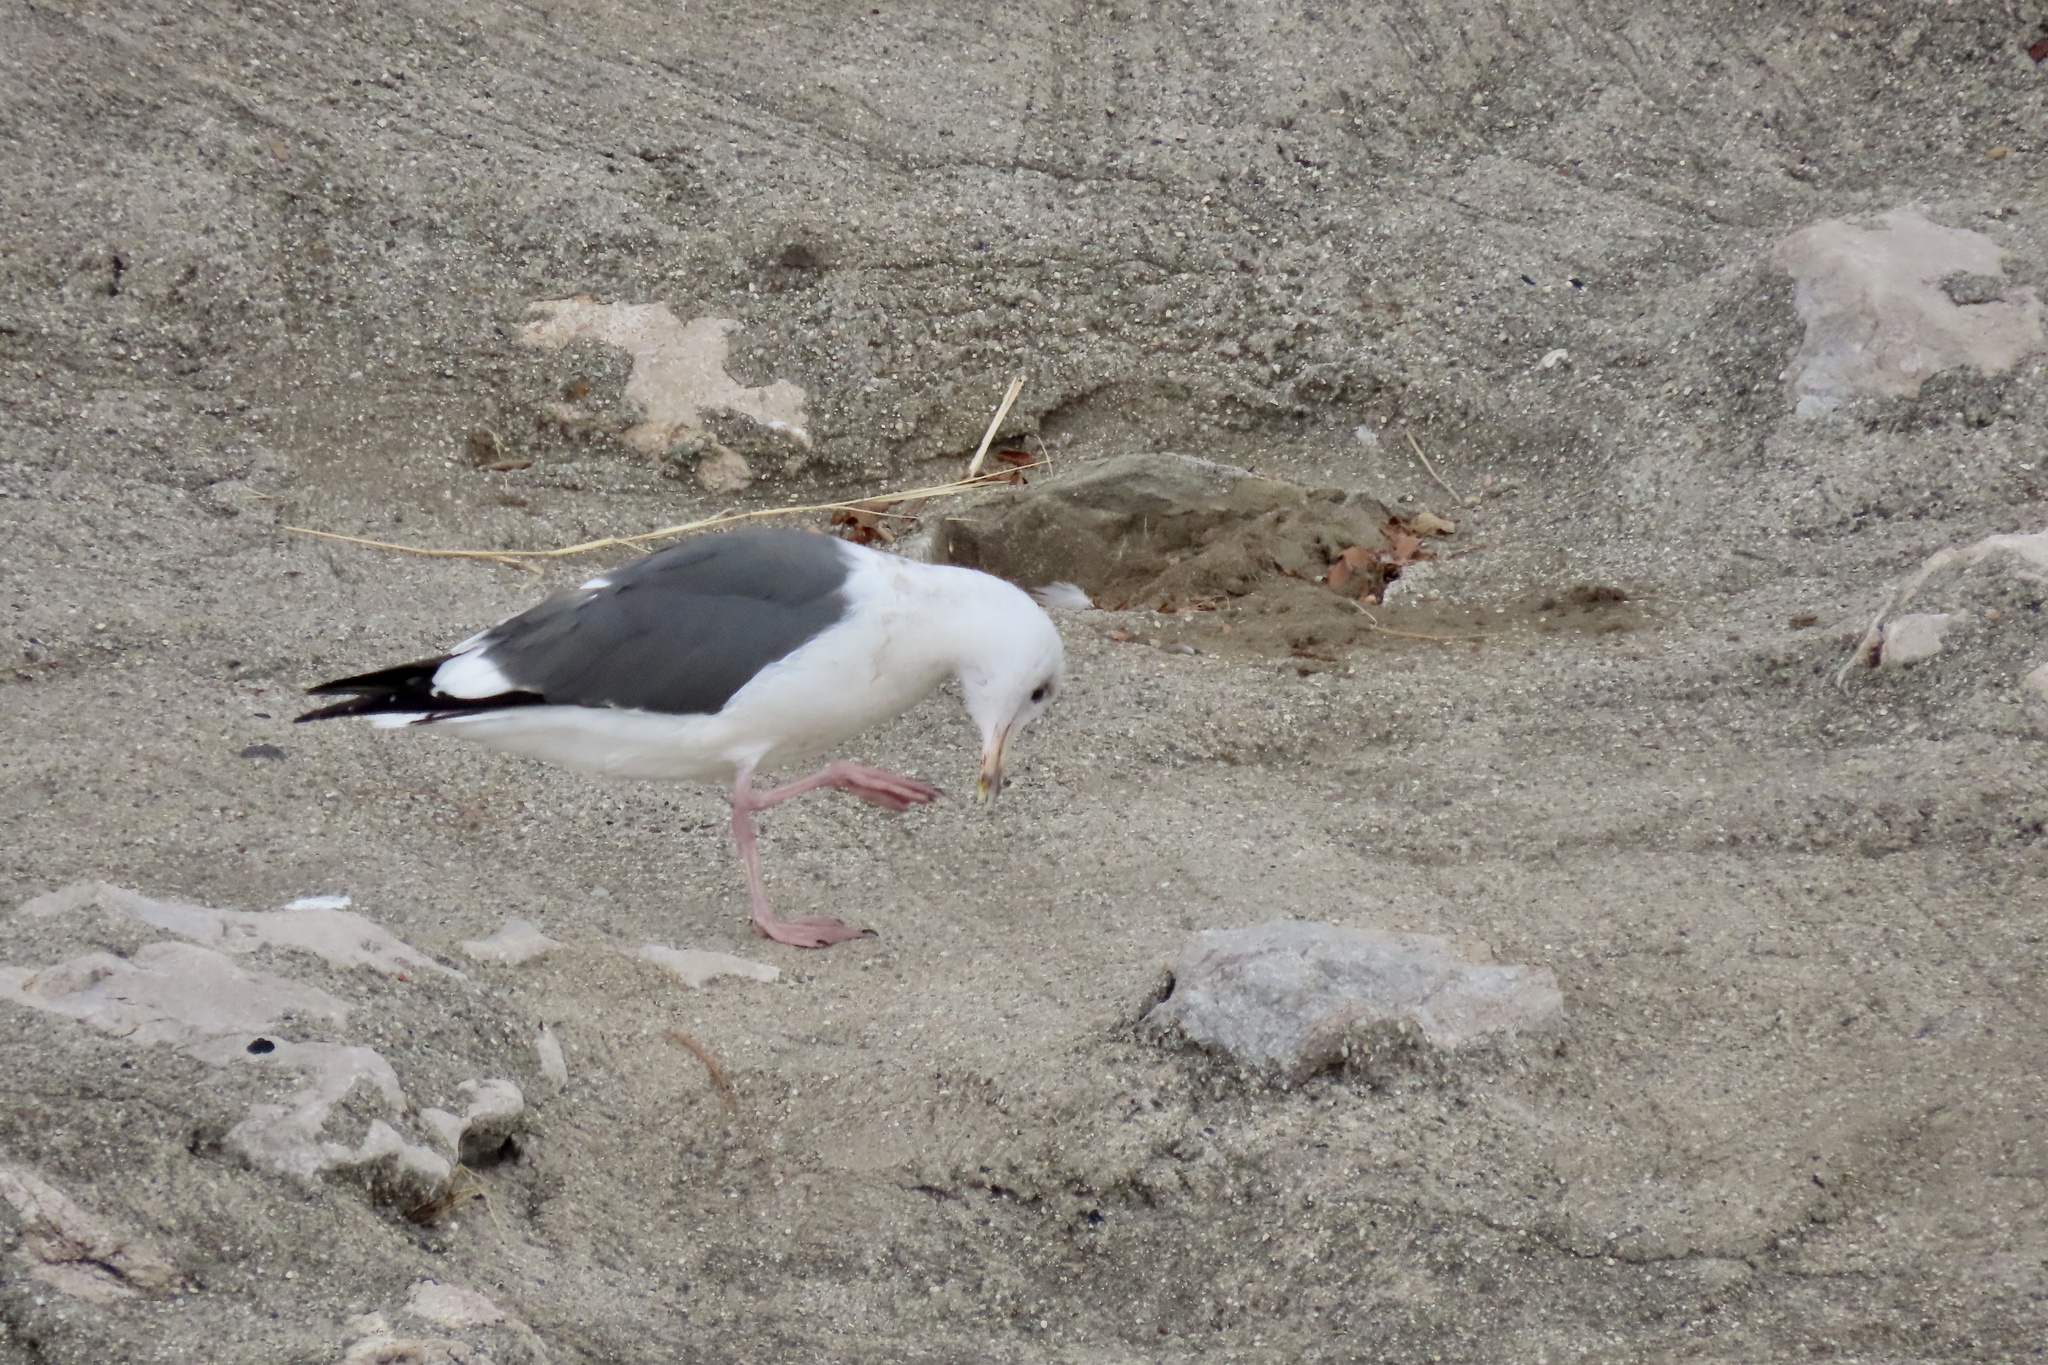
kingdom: Animalia
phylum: Chordata
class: Aves
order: Charadriiformes
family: Laridae
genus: Larus
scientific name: Larus occidentalis
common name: Western gull
